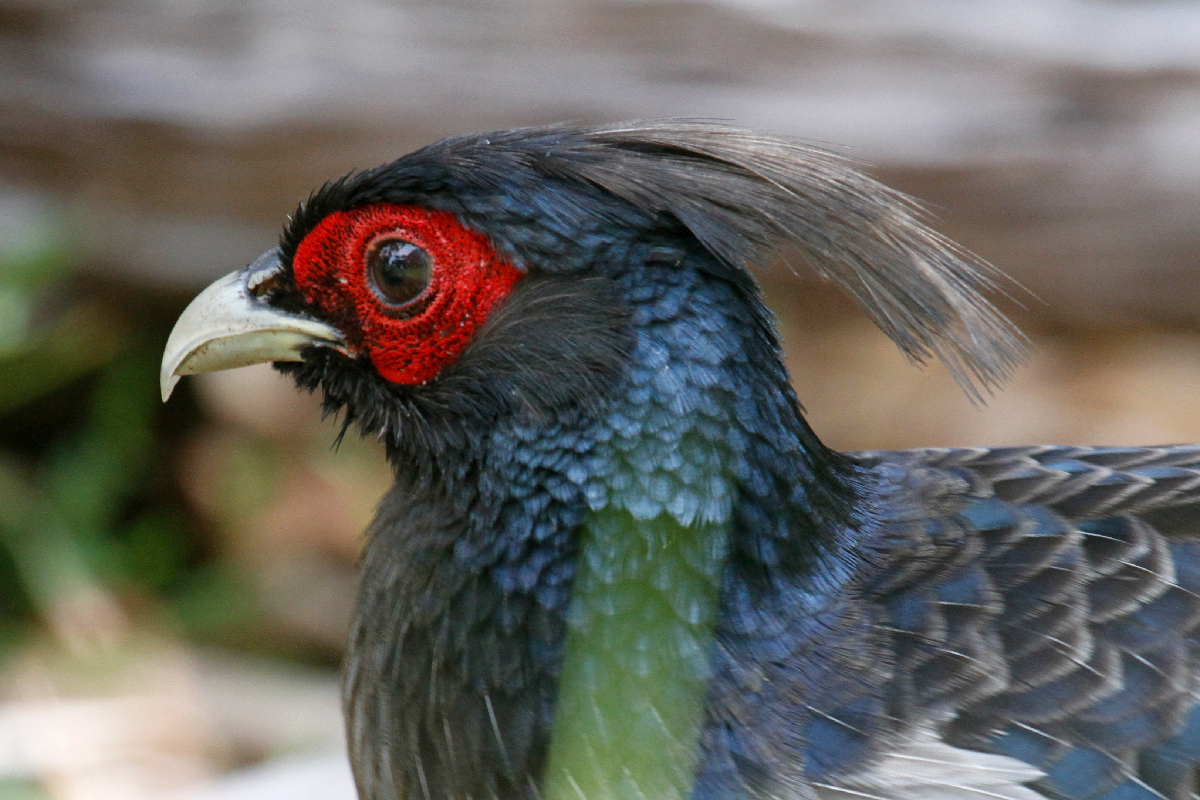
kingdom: Animalia
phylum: Chordata
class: Aves
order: Galliformes
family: Phasianidae
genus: Lophura
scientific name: Lophura leucomelanos
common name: Kalij pheasant
